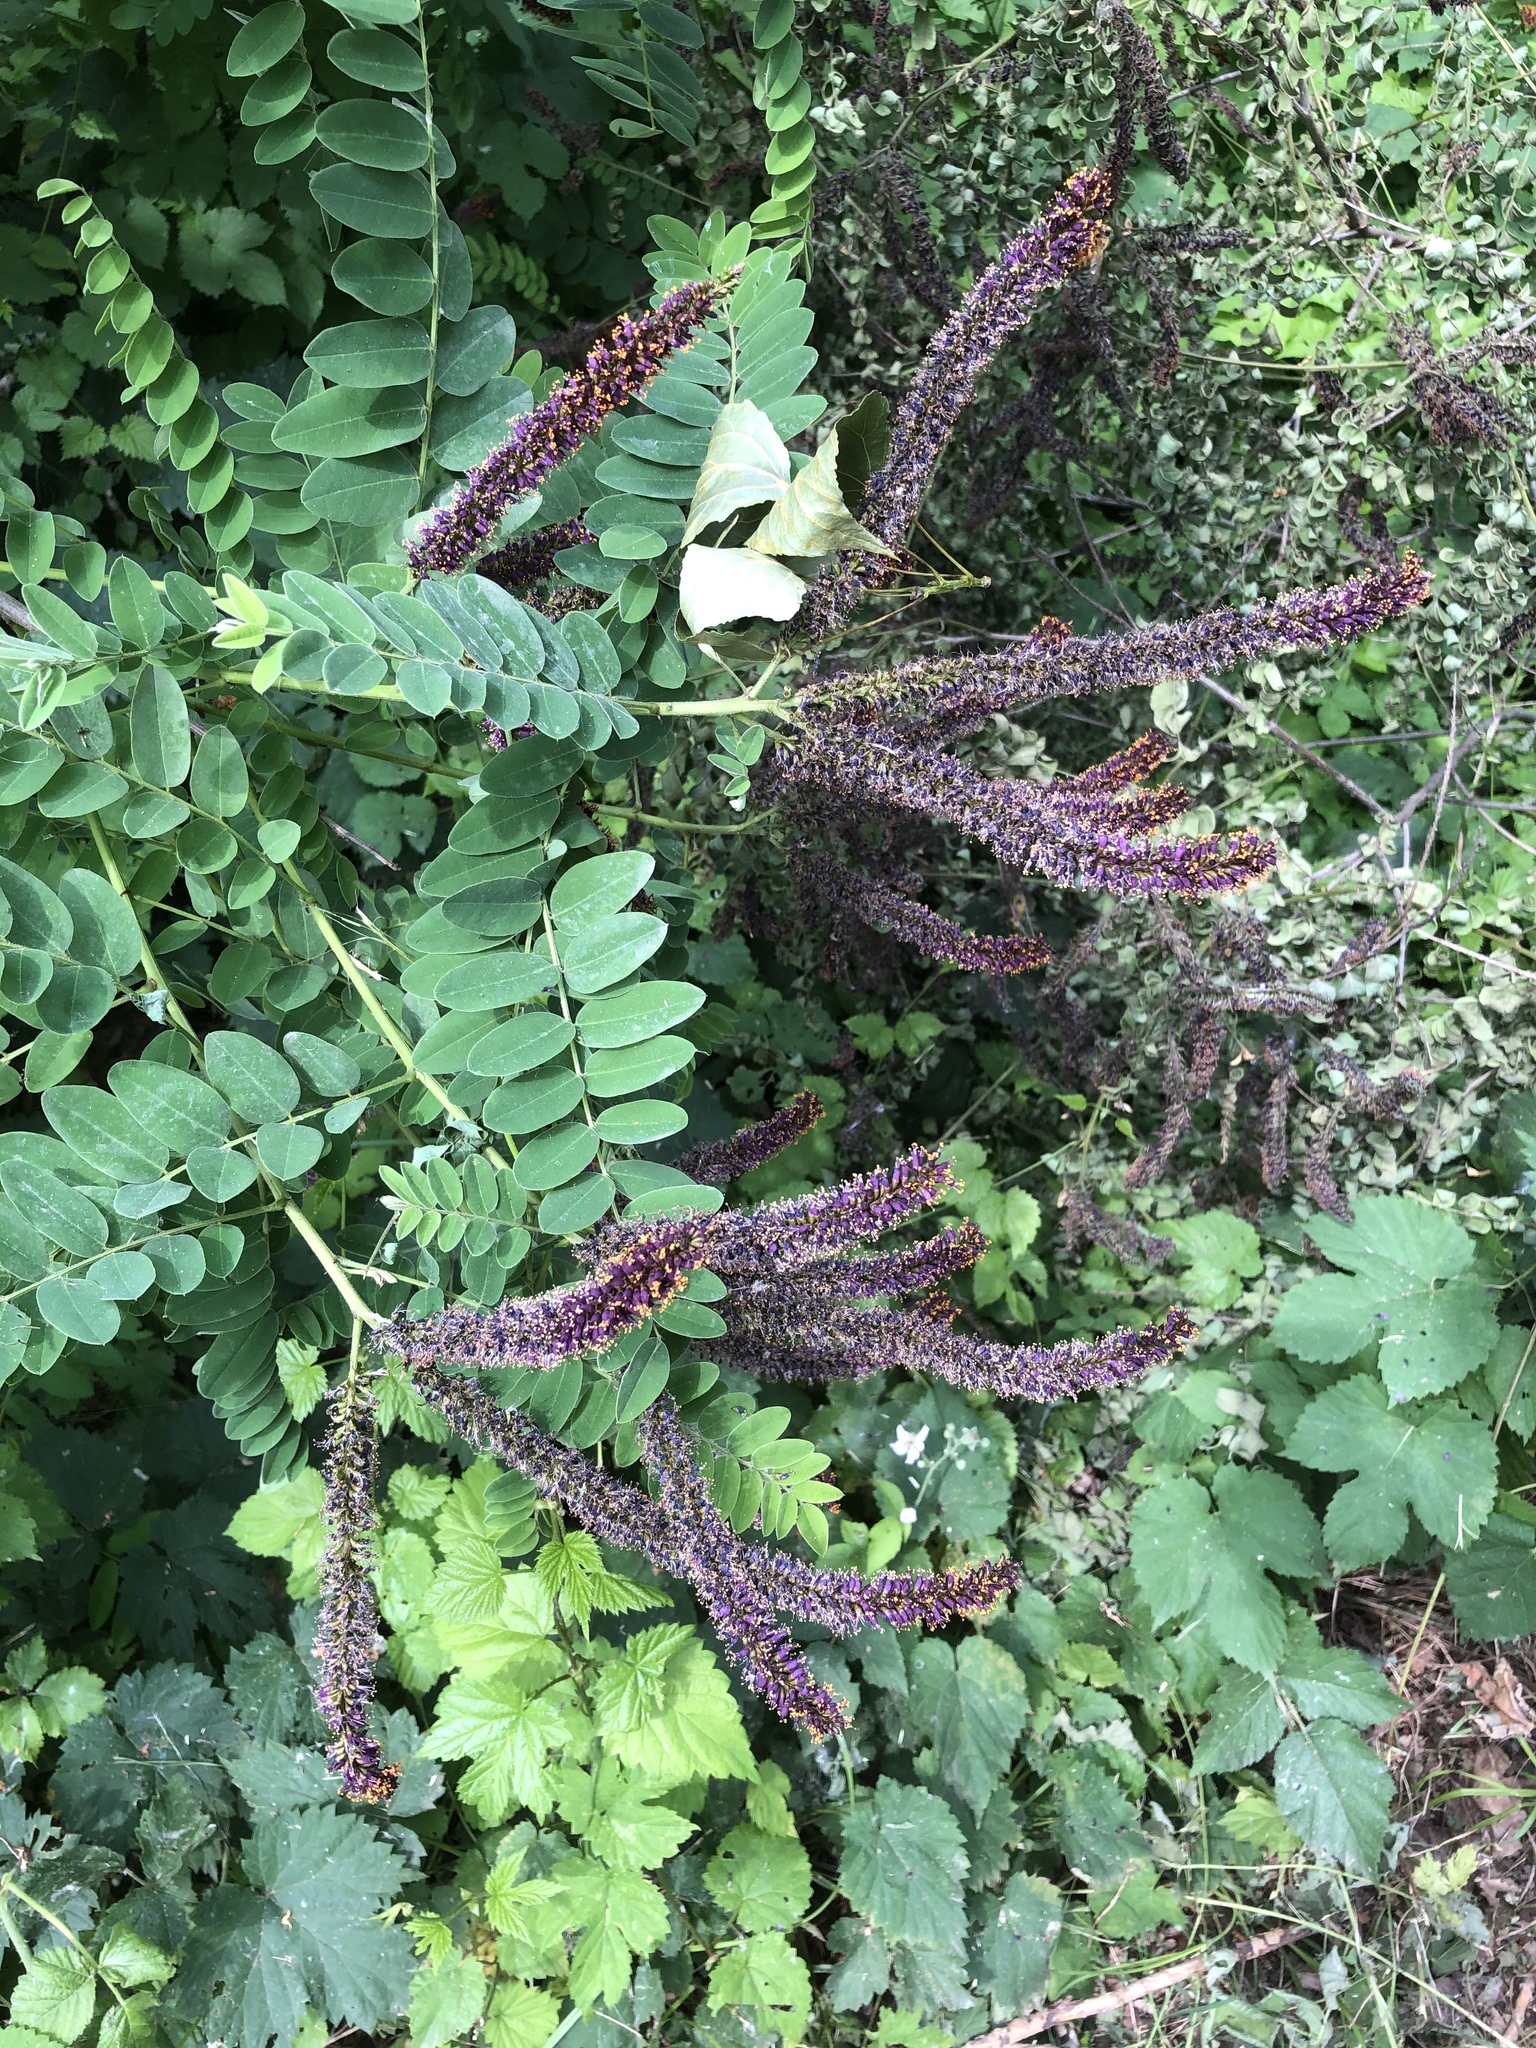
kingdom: Plantae
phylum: Tracheophyta
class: Magnoliopsida
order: Fabales
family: Fabaceae
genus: Amorpha
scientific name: Amorpha fruticosa
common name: False indigo
